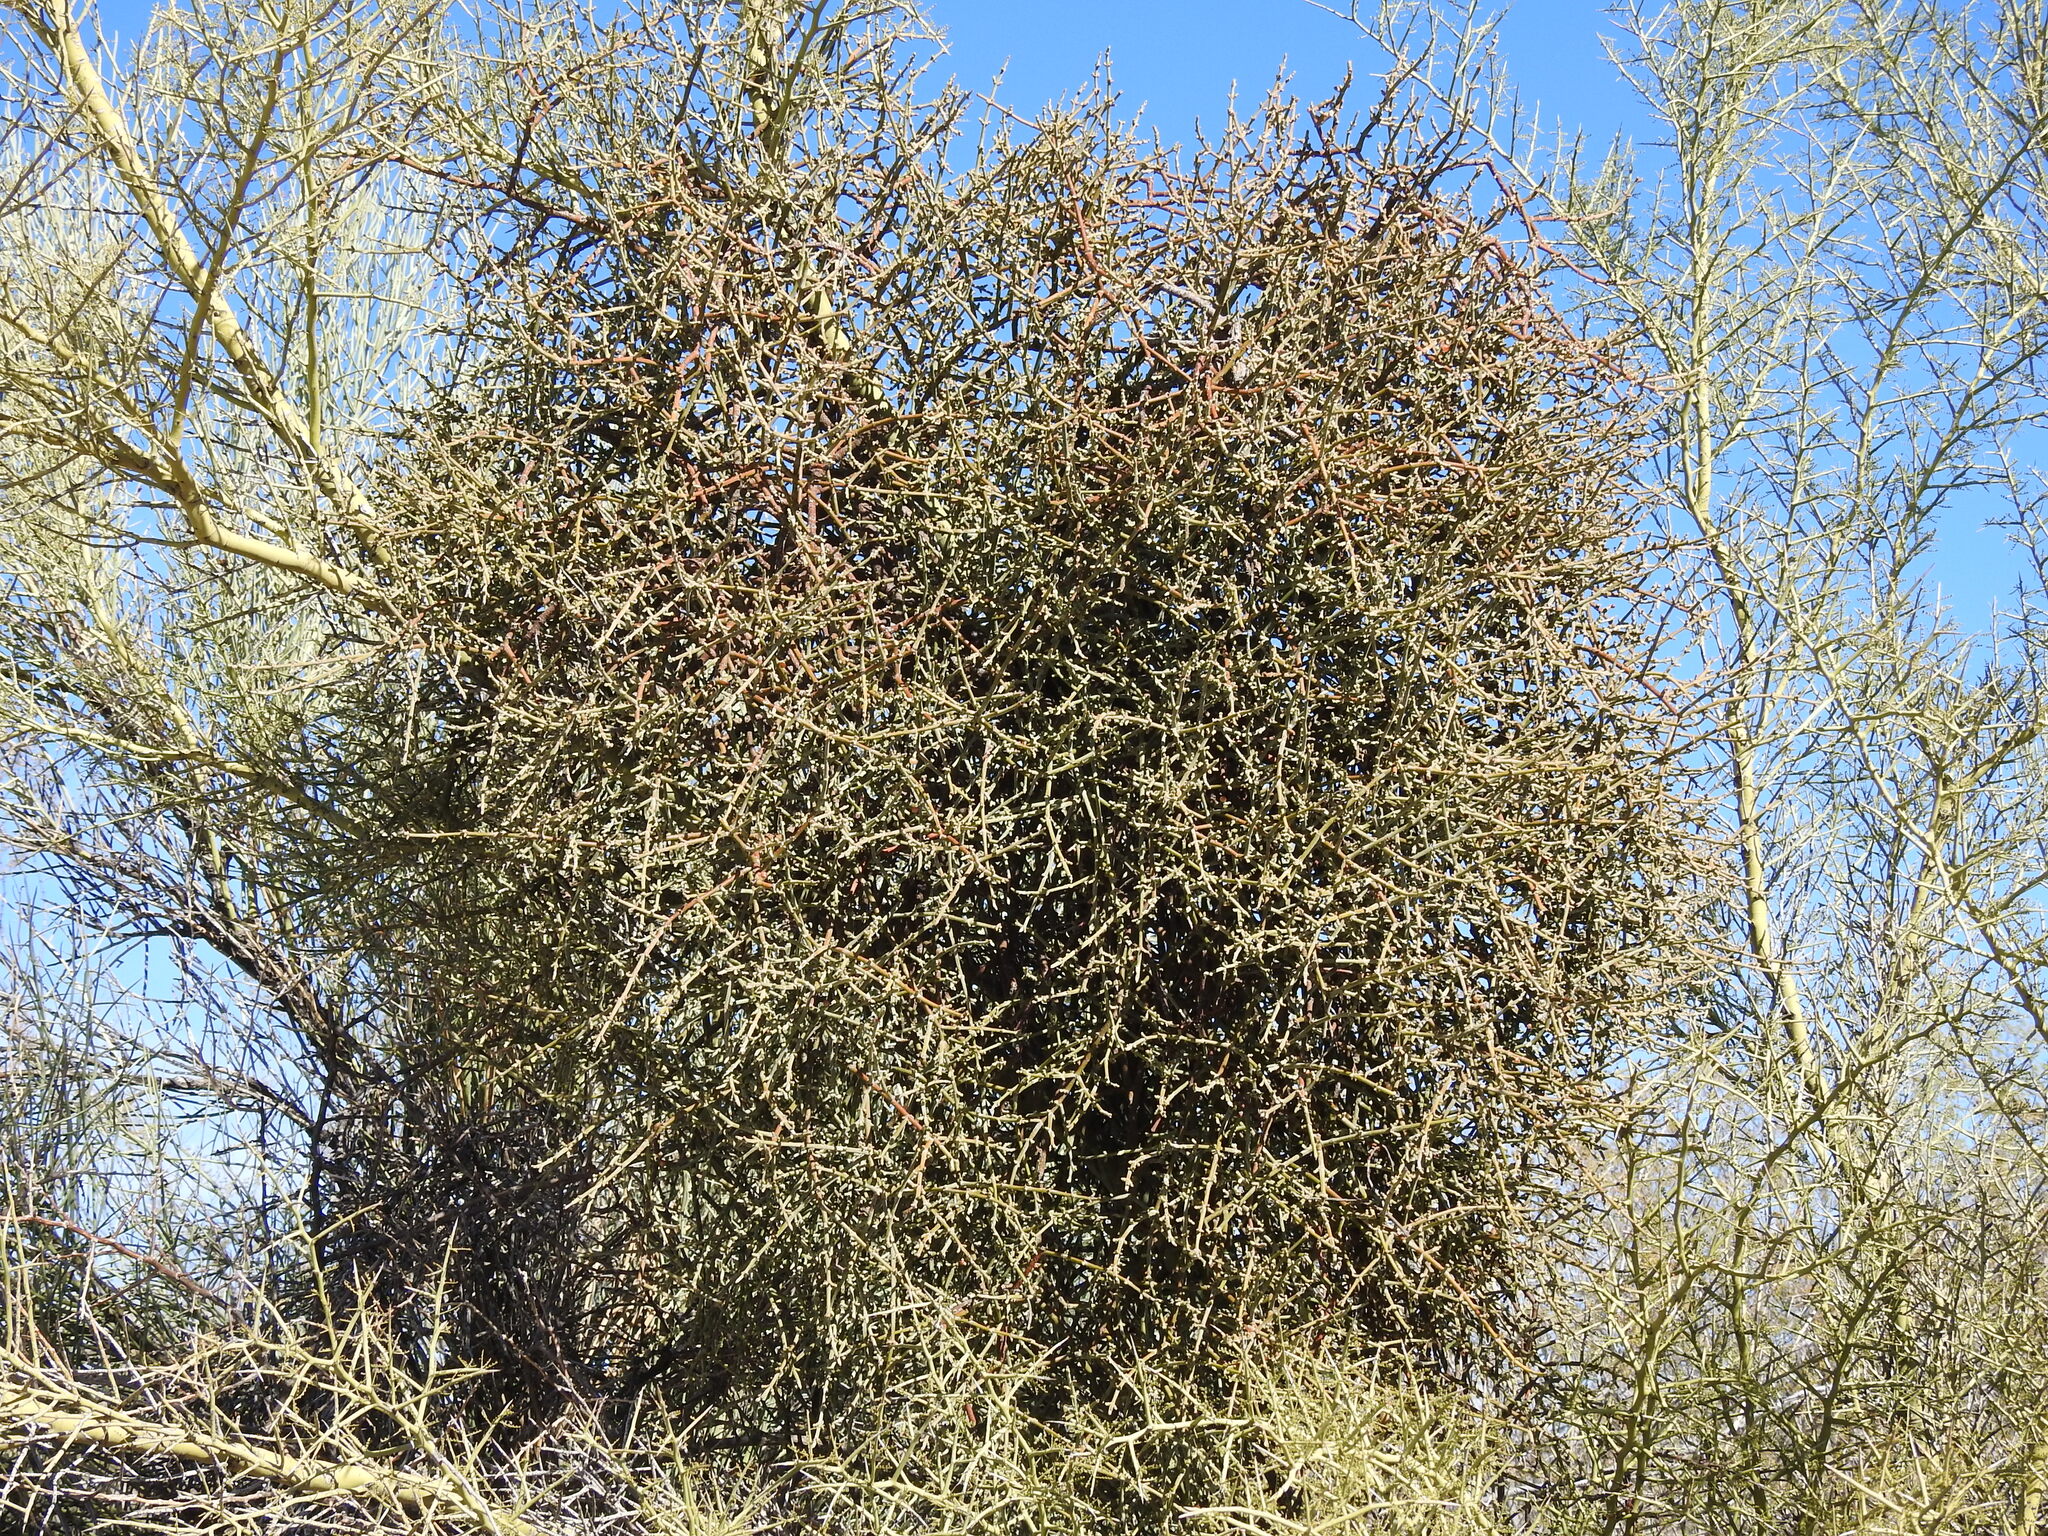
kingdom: Plantae
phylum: Tracheophyta
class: Magnoliopsida
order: Santalales
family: Viscaceae
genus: Phoradendron
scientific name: Phoradendron californicum
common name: Acacia mistletoe
